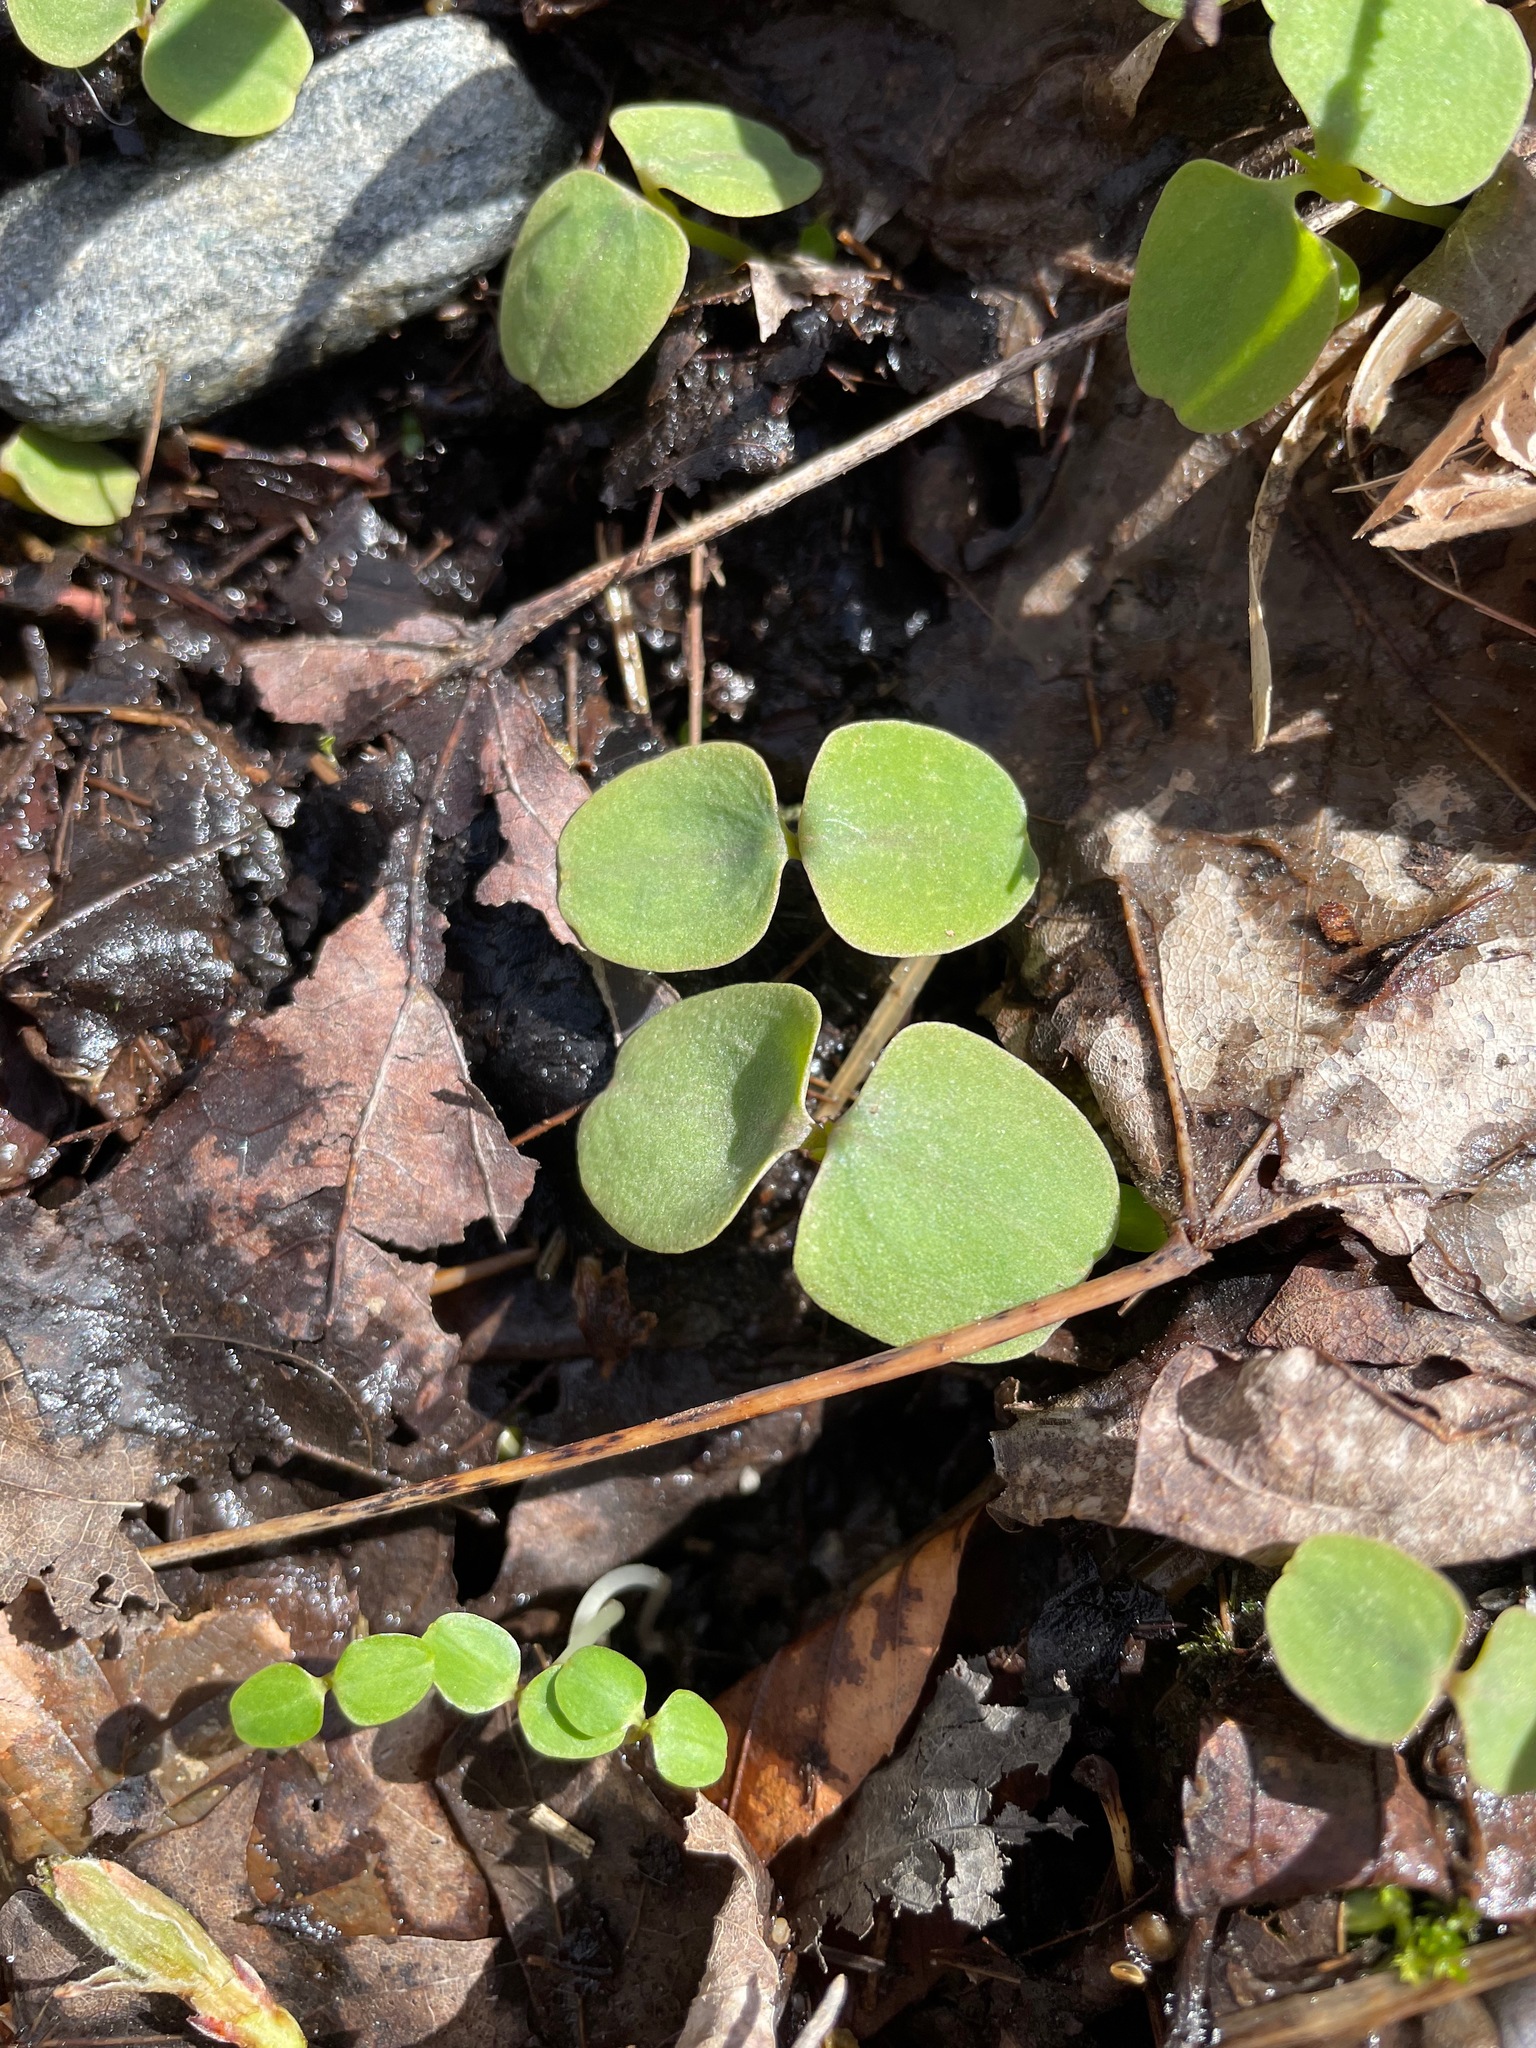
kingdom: Plantae
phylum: Tracheophyta
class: Magnoliopsida
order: Ericales
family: Balsaminaceae
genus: Impatiens
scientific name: Impatiens
